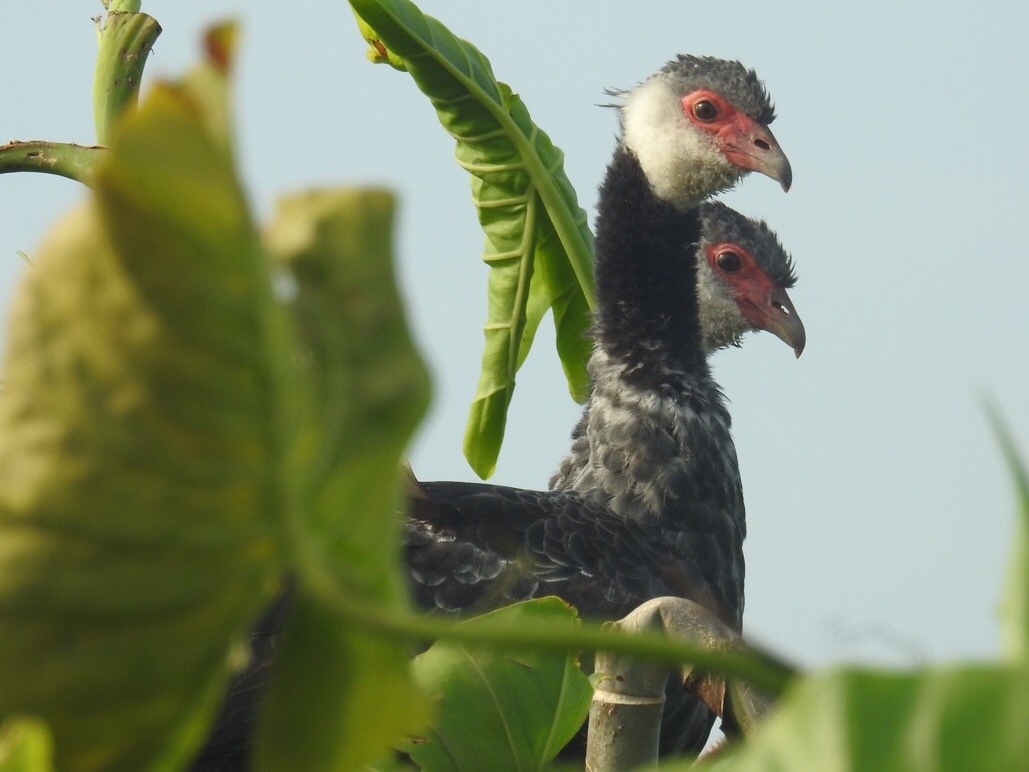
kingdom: Animalia
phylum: Chordata
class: Aves
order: Anseriformes
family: Anhimidae
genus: Chauna
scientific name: Chauna chavaria
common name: Northern screamer
